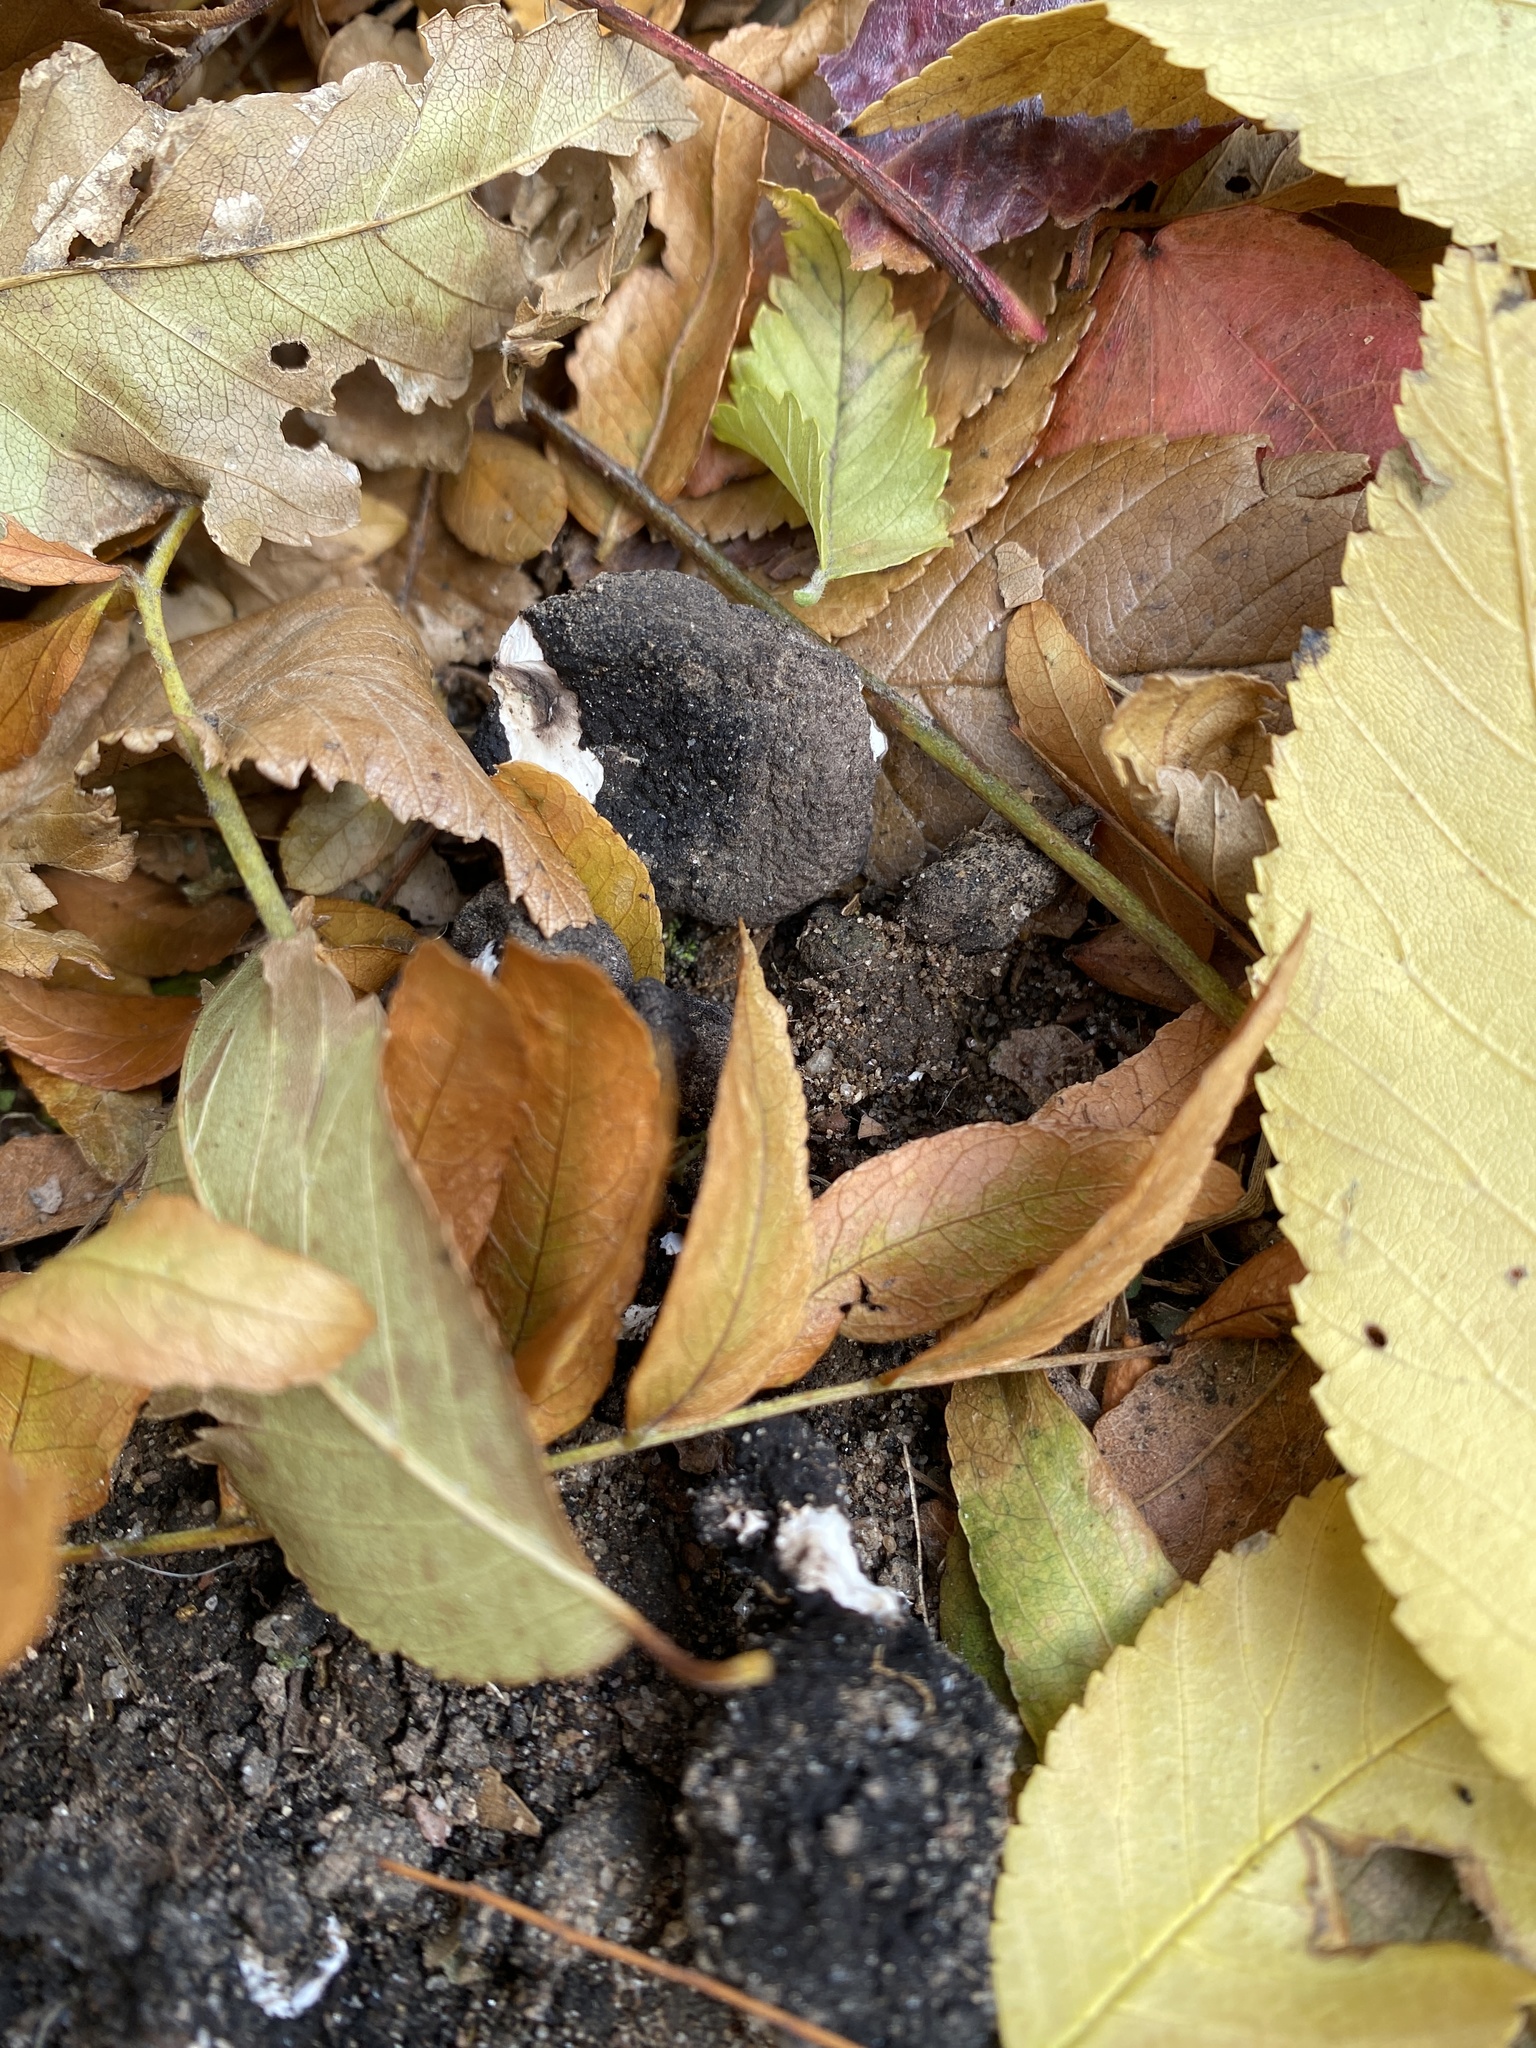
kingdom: Fungi
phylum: Ascomycota
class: Sordariomycetes
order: Xylariales
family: Xylariaceae
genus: Xylaria
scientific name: Xylaria polymorpha
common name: Dead man's fingers
